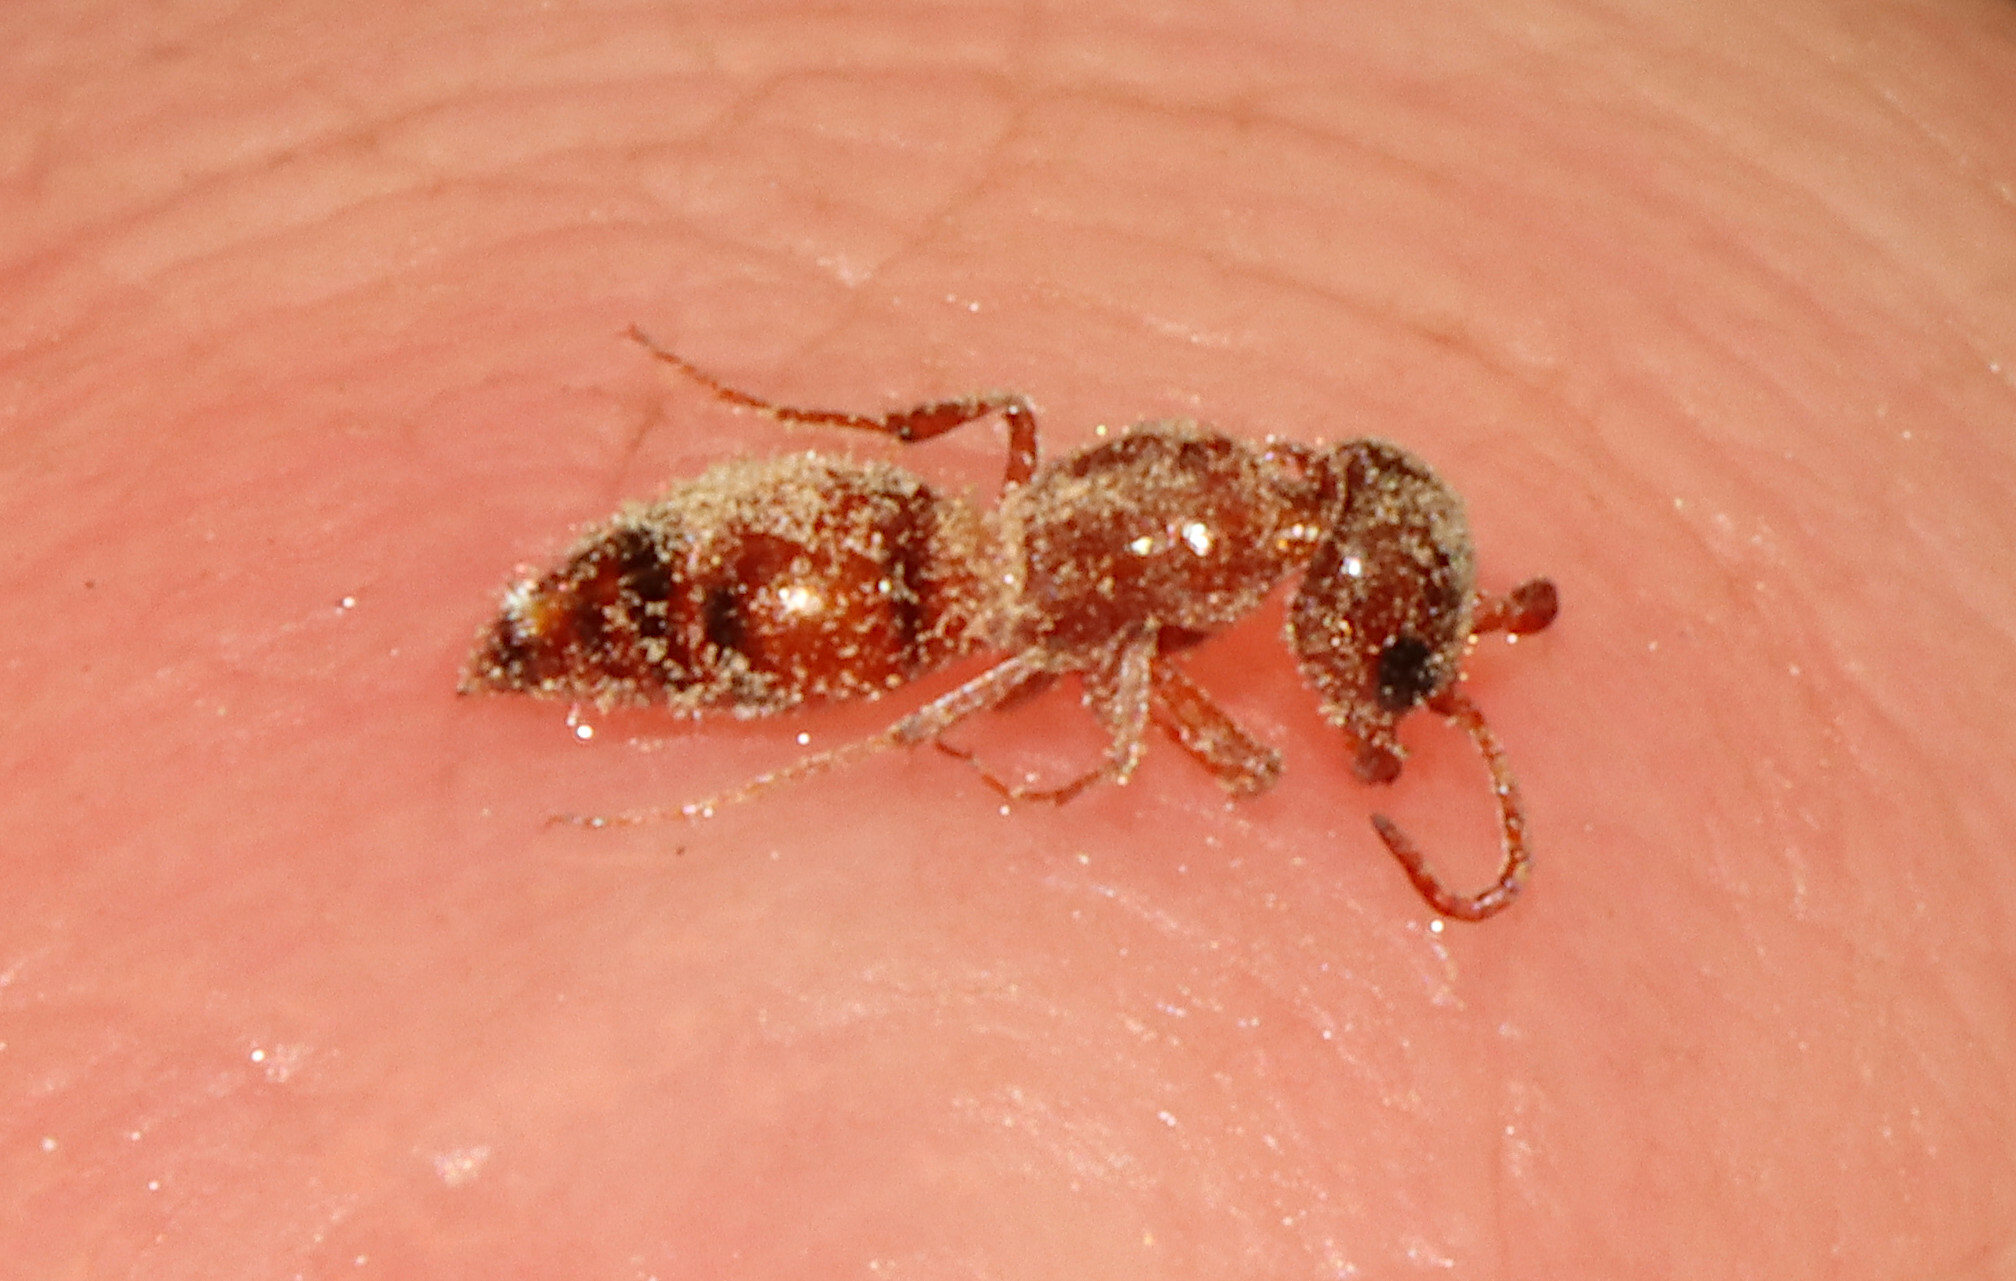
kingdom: Animalia
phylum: Arthropoda
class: Insecta
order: Hymenoptera
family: Myrmosidae
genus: Myrmosula
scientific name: Myrmosula
